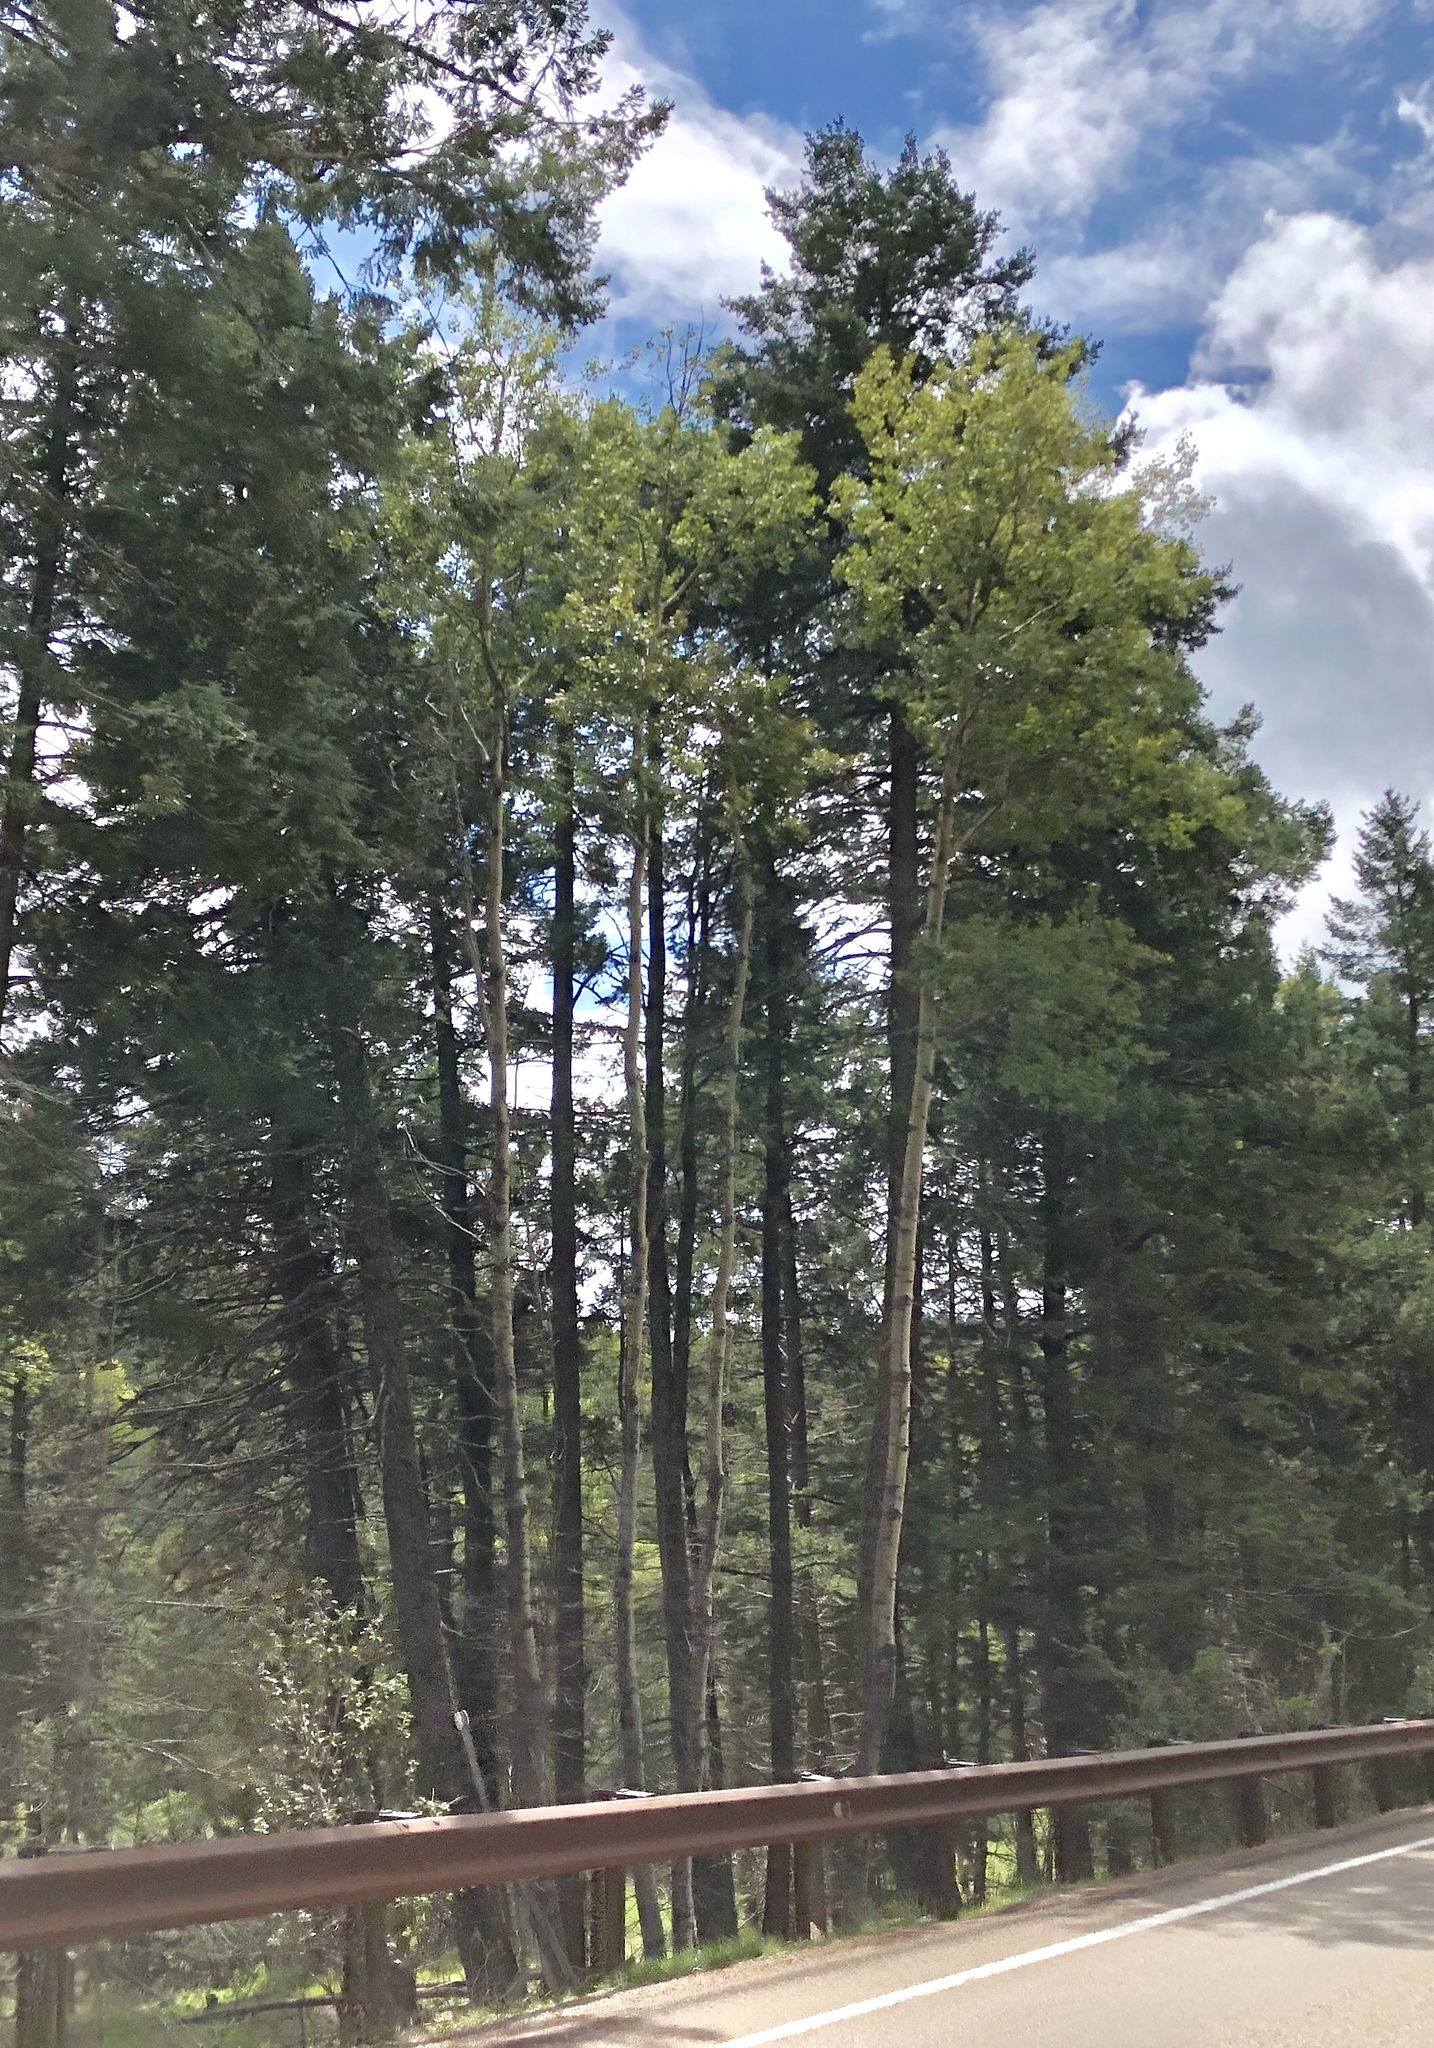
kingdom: Plantae
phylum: Tracheophyta
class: Magnoliopsida
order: Malpighiales
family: Salicaceae
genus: Populus
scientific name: Populus tremuloides
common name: Quaking aspen
